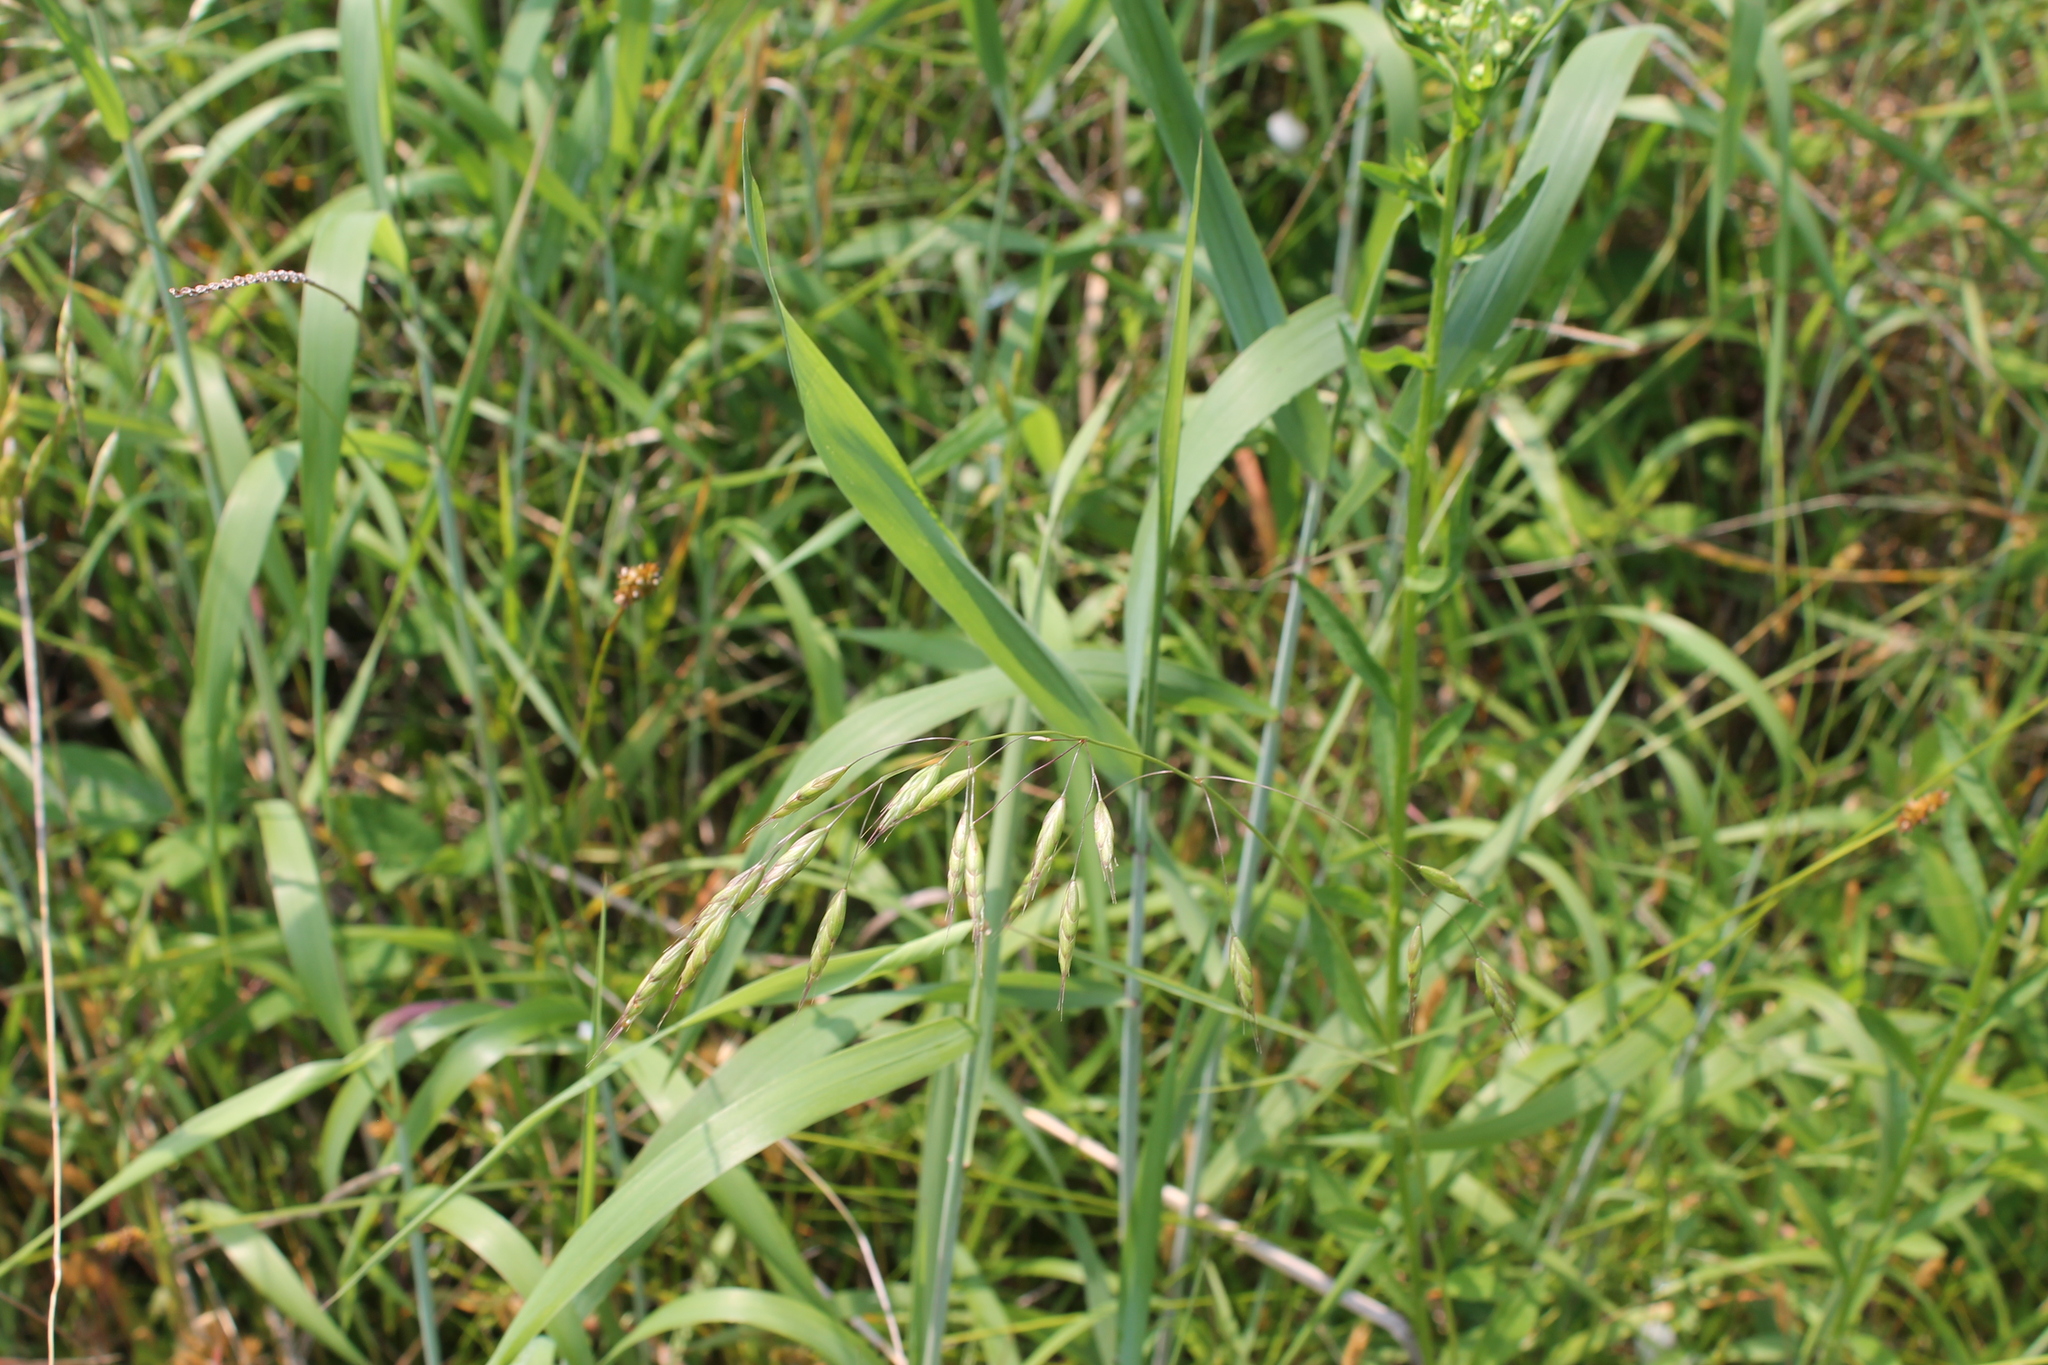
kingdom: Plantae
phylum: Tracheophyta
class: Liliopsida
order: Poales
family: Poaceae
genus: Bromus
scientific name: Bromus japonicus
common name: Japanese brome
